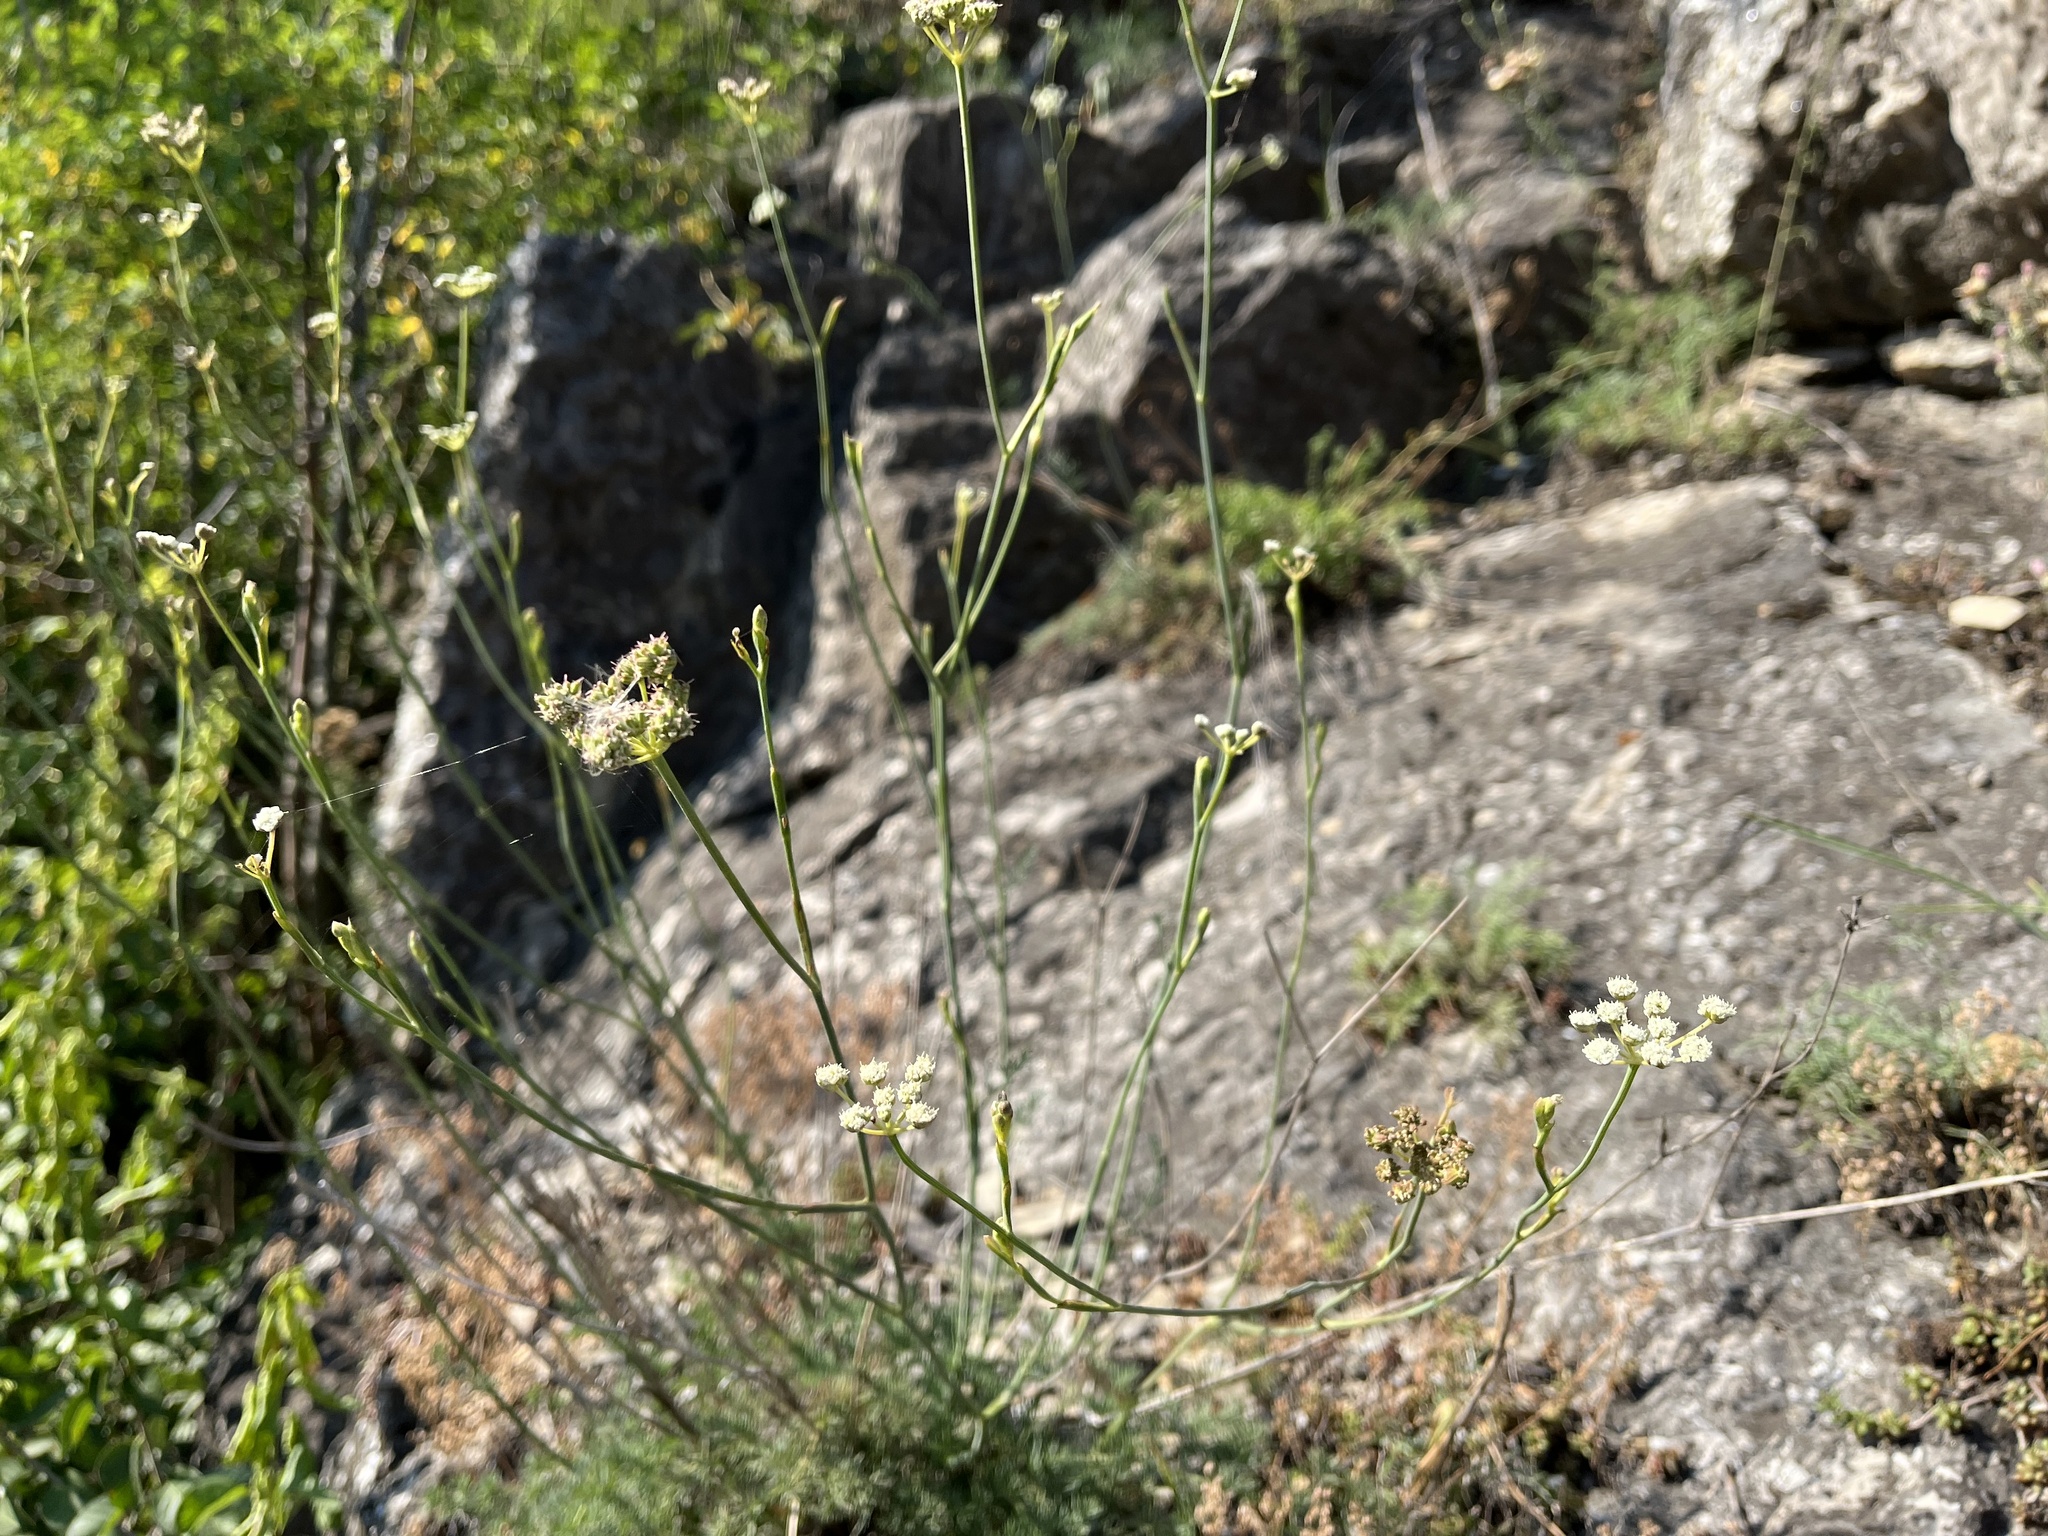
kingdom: Plantae
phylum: Tracheophyta
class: Magnoliopsida
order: Apiales
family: Apiaceae
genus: Hippomarathrum
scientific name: Hippomarathrum
